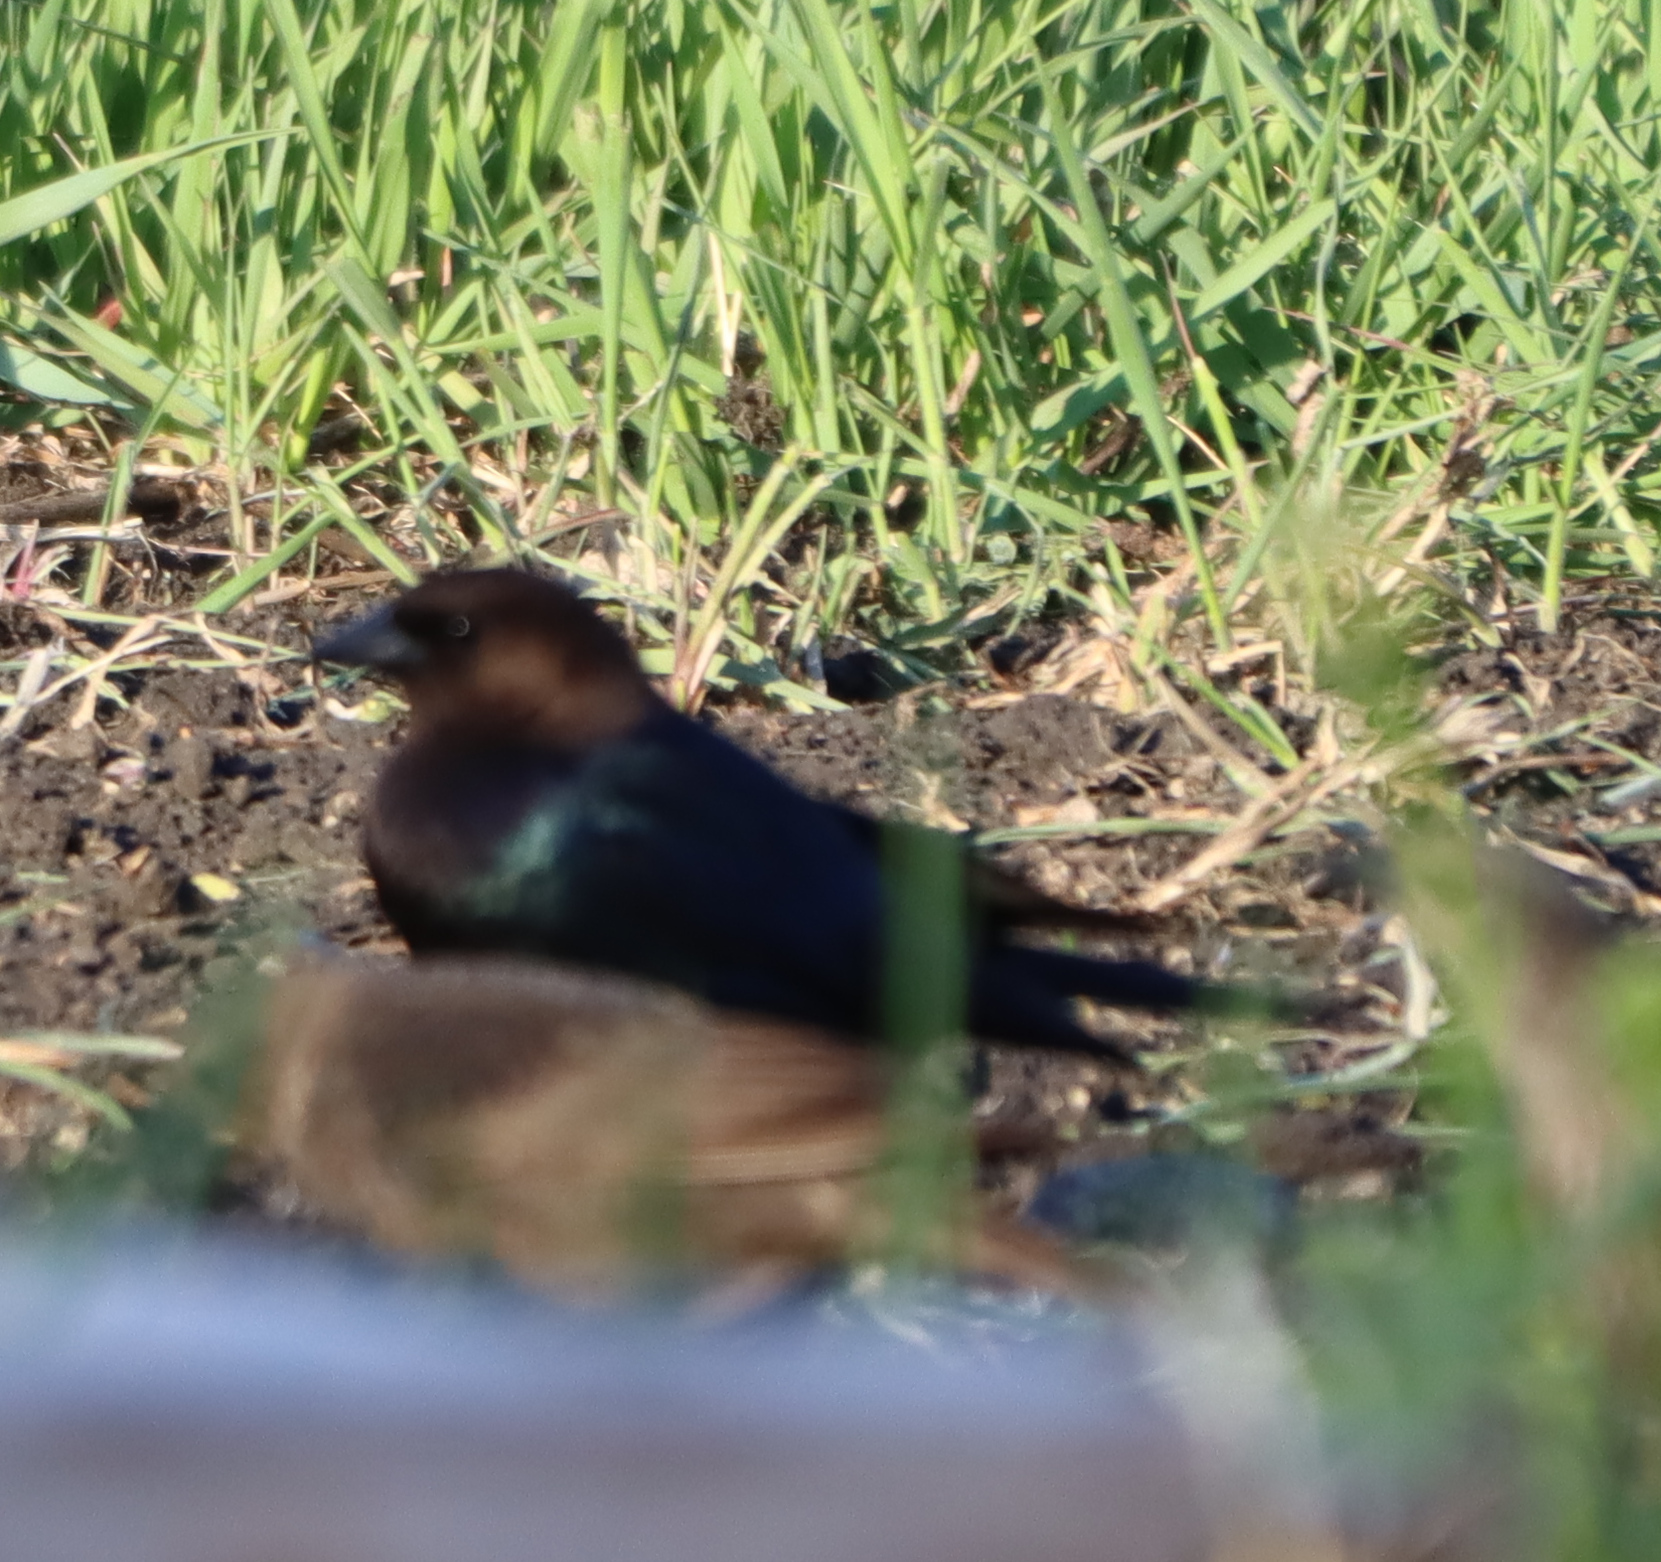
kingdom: Animalia
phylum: Chordata
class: Aves
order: Passeriformes
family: Icteridae
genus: Molothrus
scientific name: Molothrus ater
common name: Brown-headed cowbird
